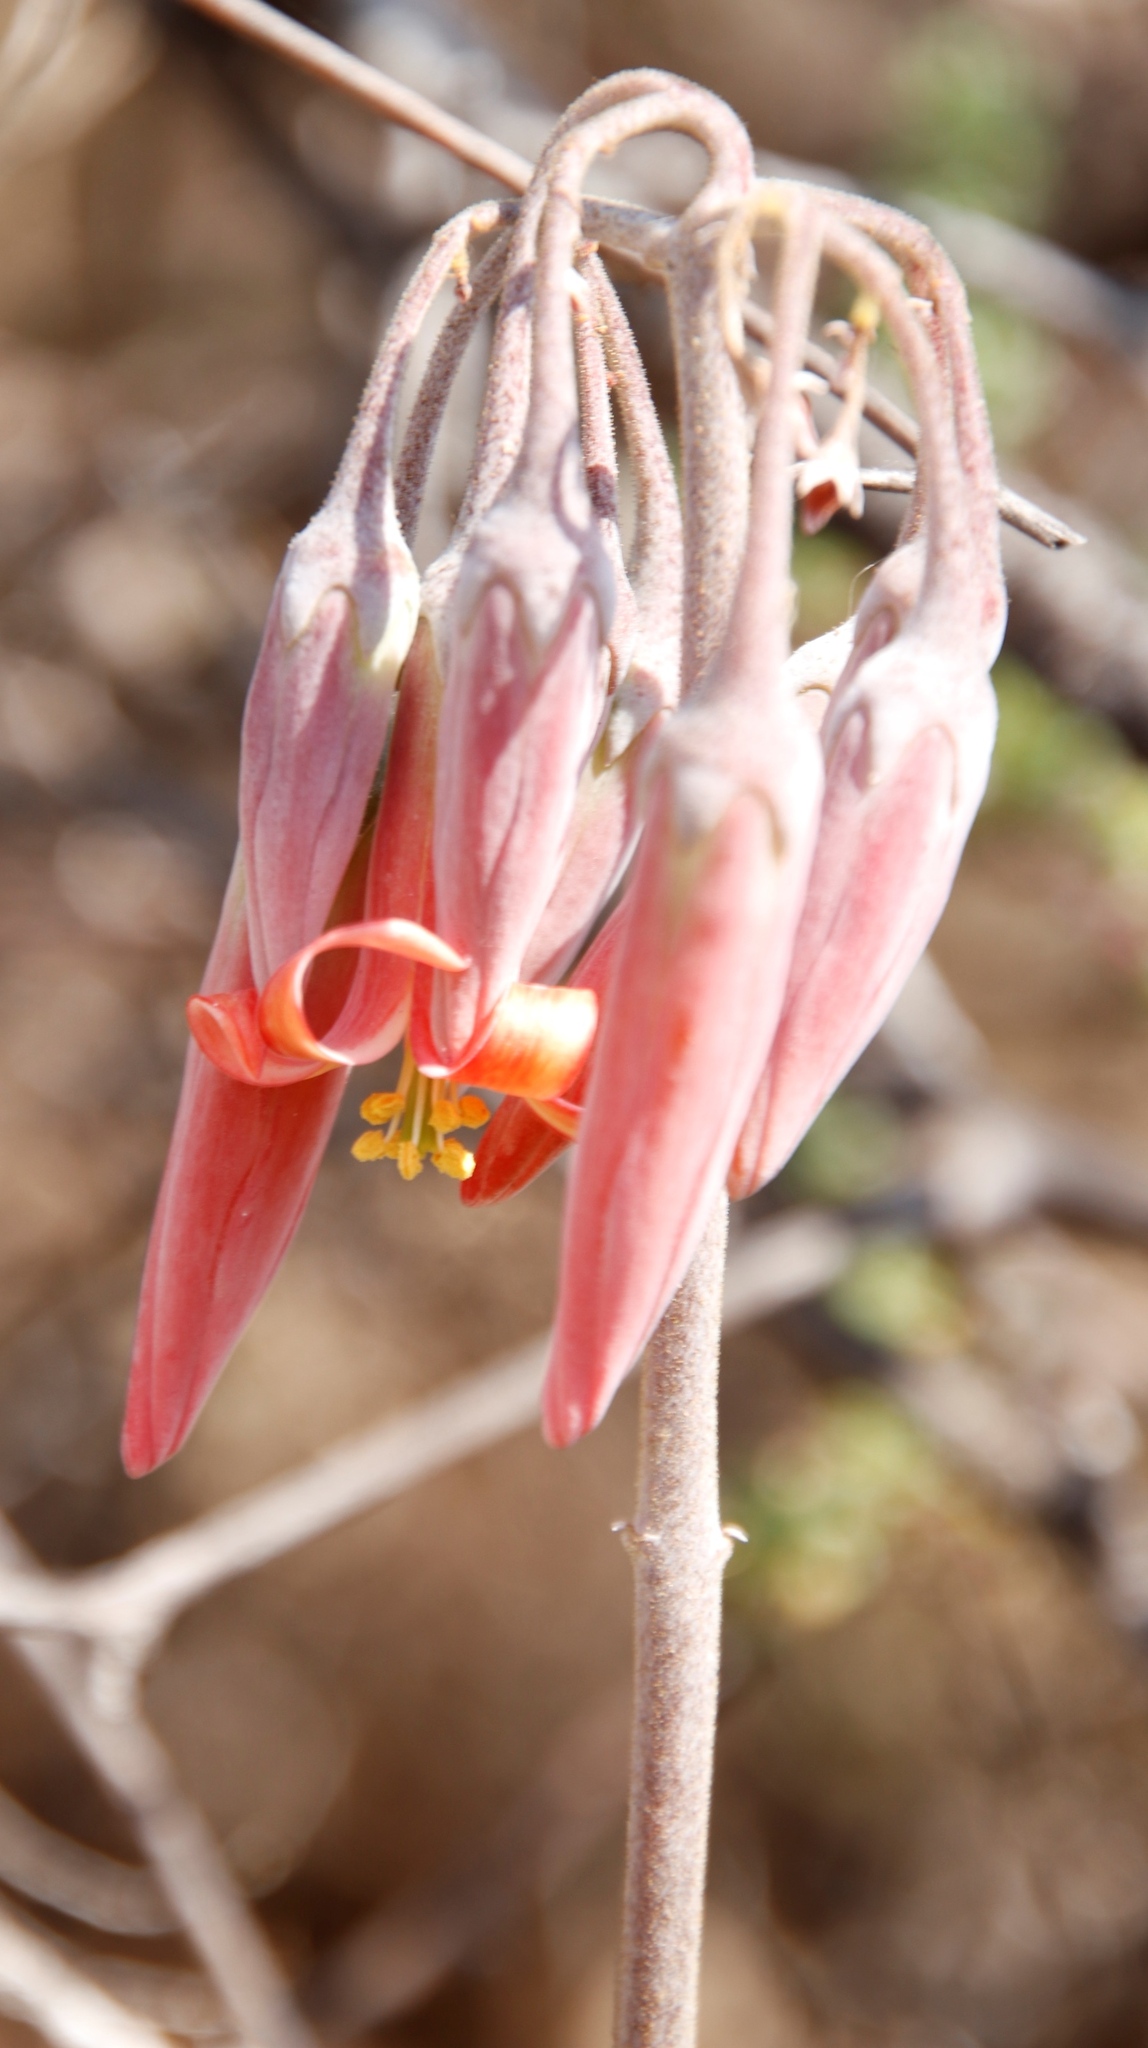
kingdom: Plantae
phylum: Tracheophyta
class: Magnoliopsida
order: Saxifragales
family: Crassulaceae
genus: Cotyledon
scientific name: Cotyledon orbiculata
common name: Pig's ear
